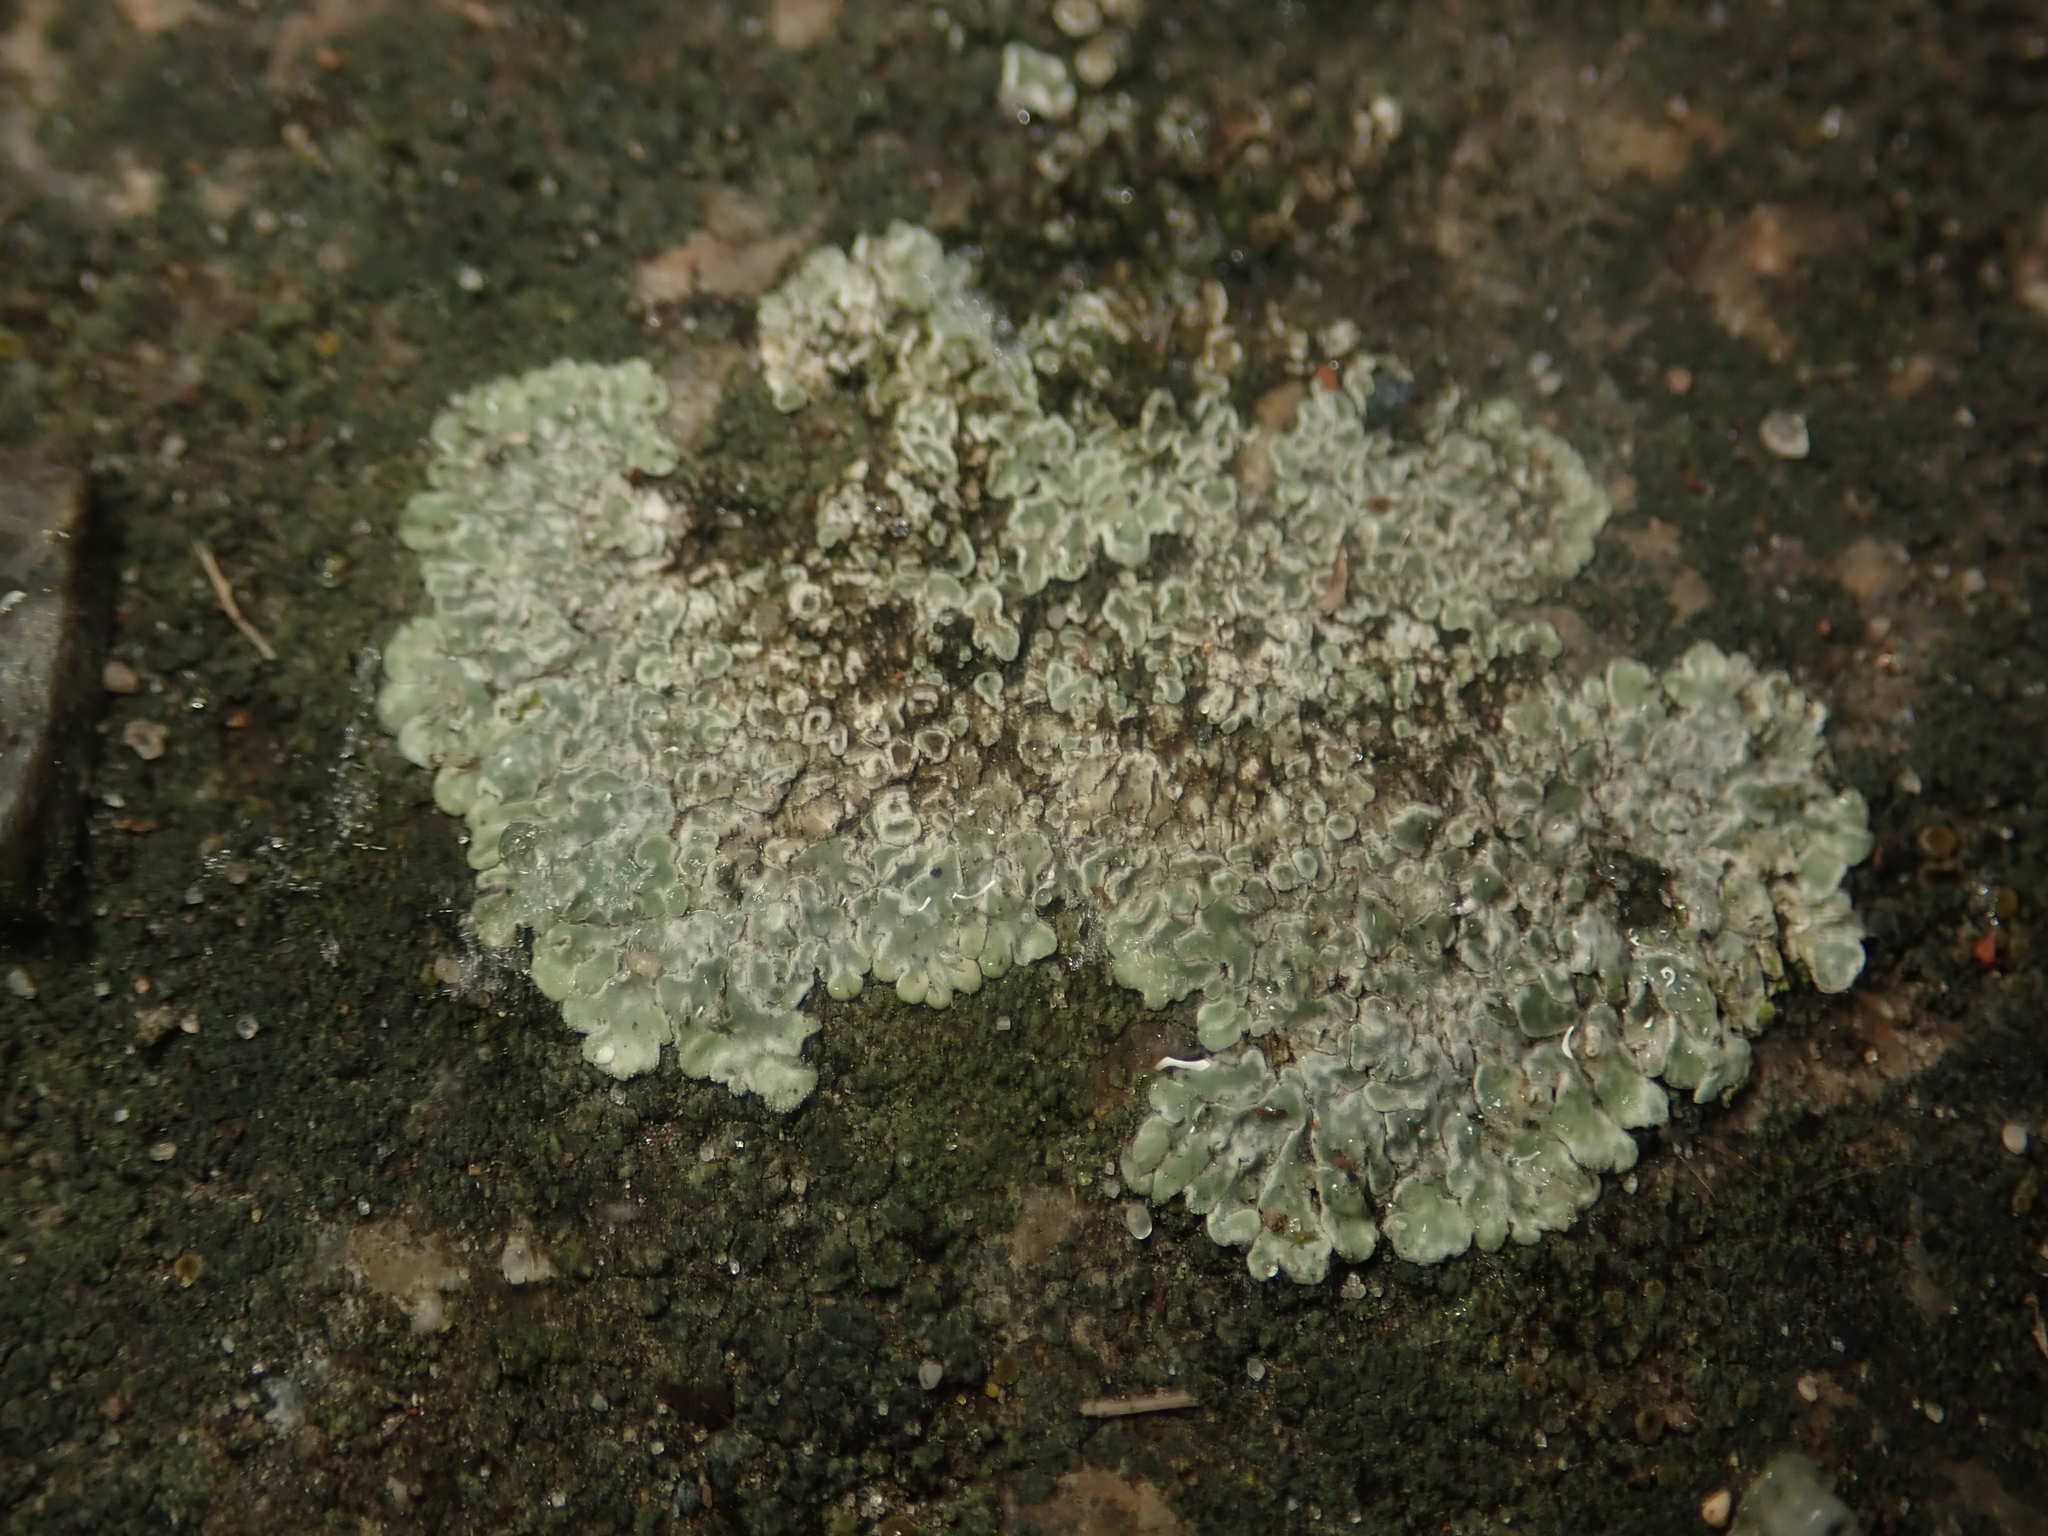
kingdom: Fungi
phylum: Ascomycota
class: Lecanoromycetes
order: Lecanorales
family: Lecanoraceae
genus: Protoparmeliopsis
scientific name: Protoparmeliopsis muralis
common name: Stonewall rim lichen
